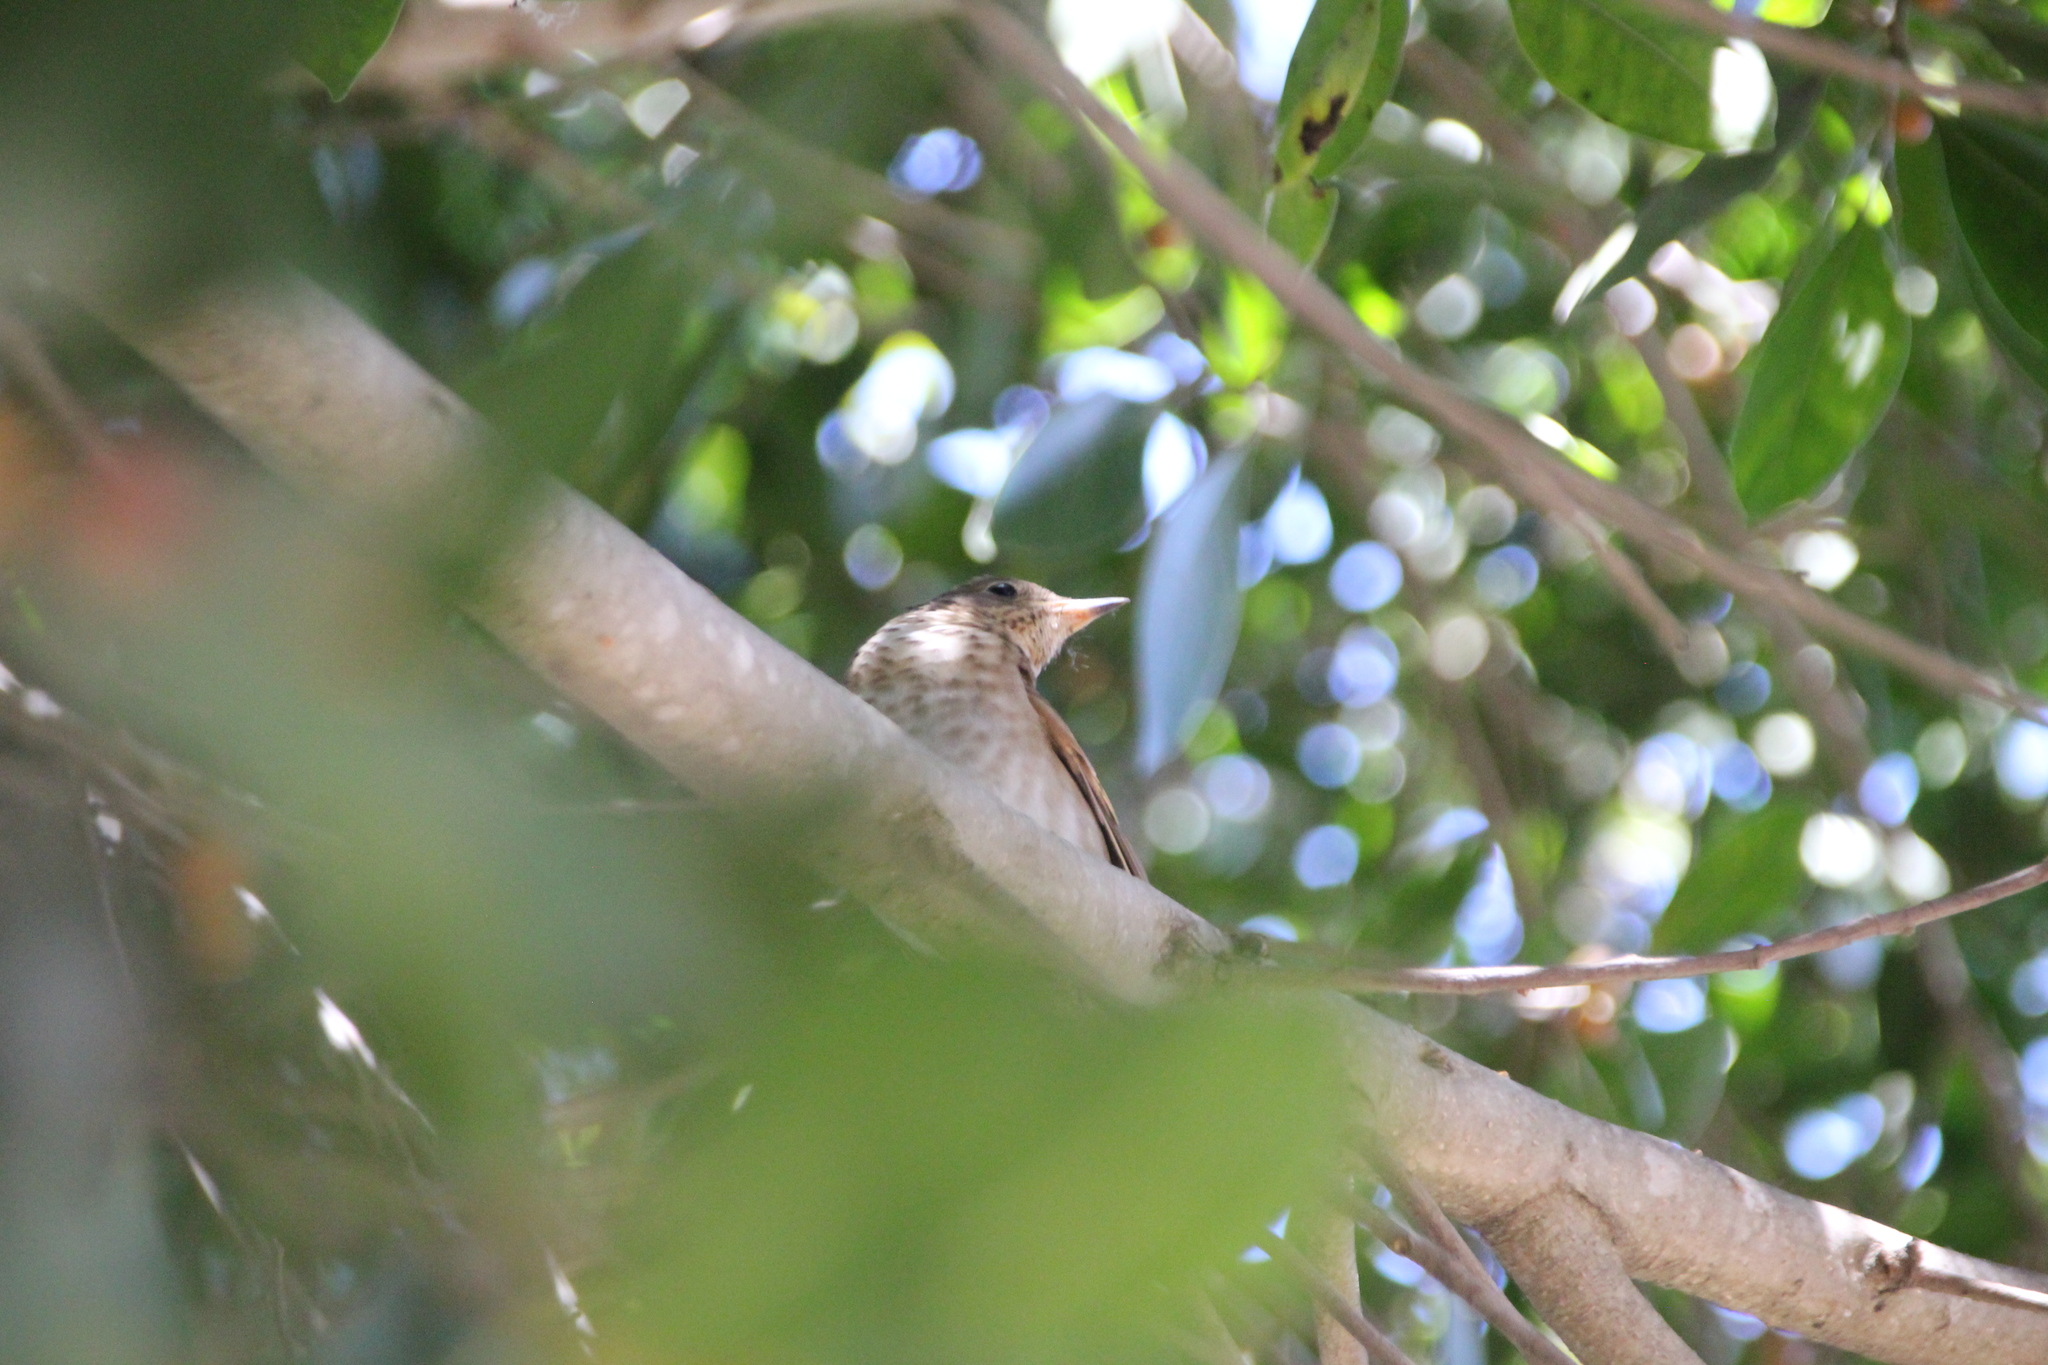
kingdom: Animalia
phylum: Chordata
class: Aves
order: Passeriformes
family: Turdidae
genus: Catharus
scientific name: Catharus ustulatus
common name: Swainson's thrush
